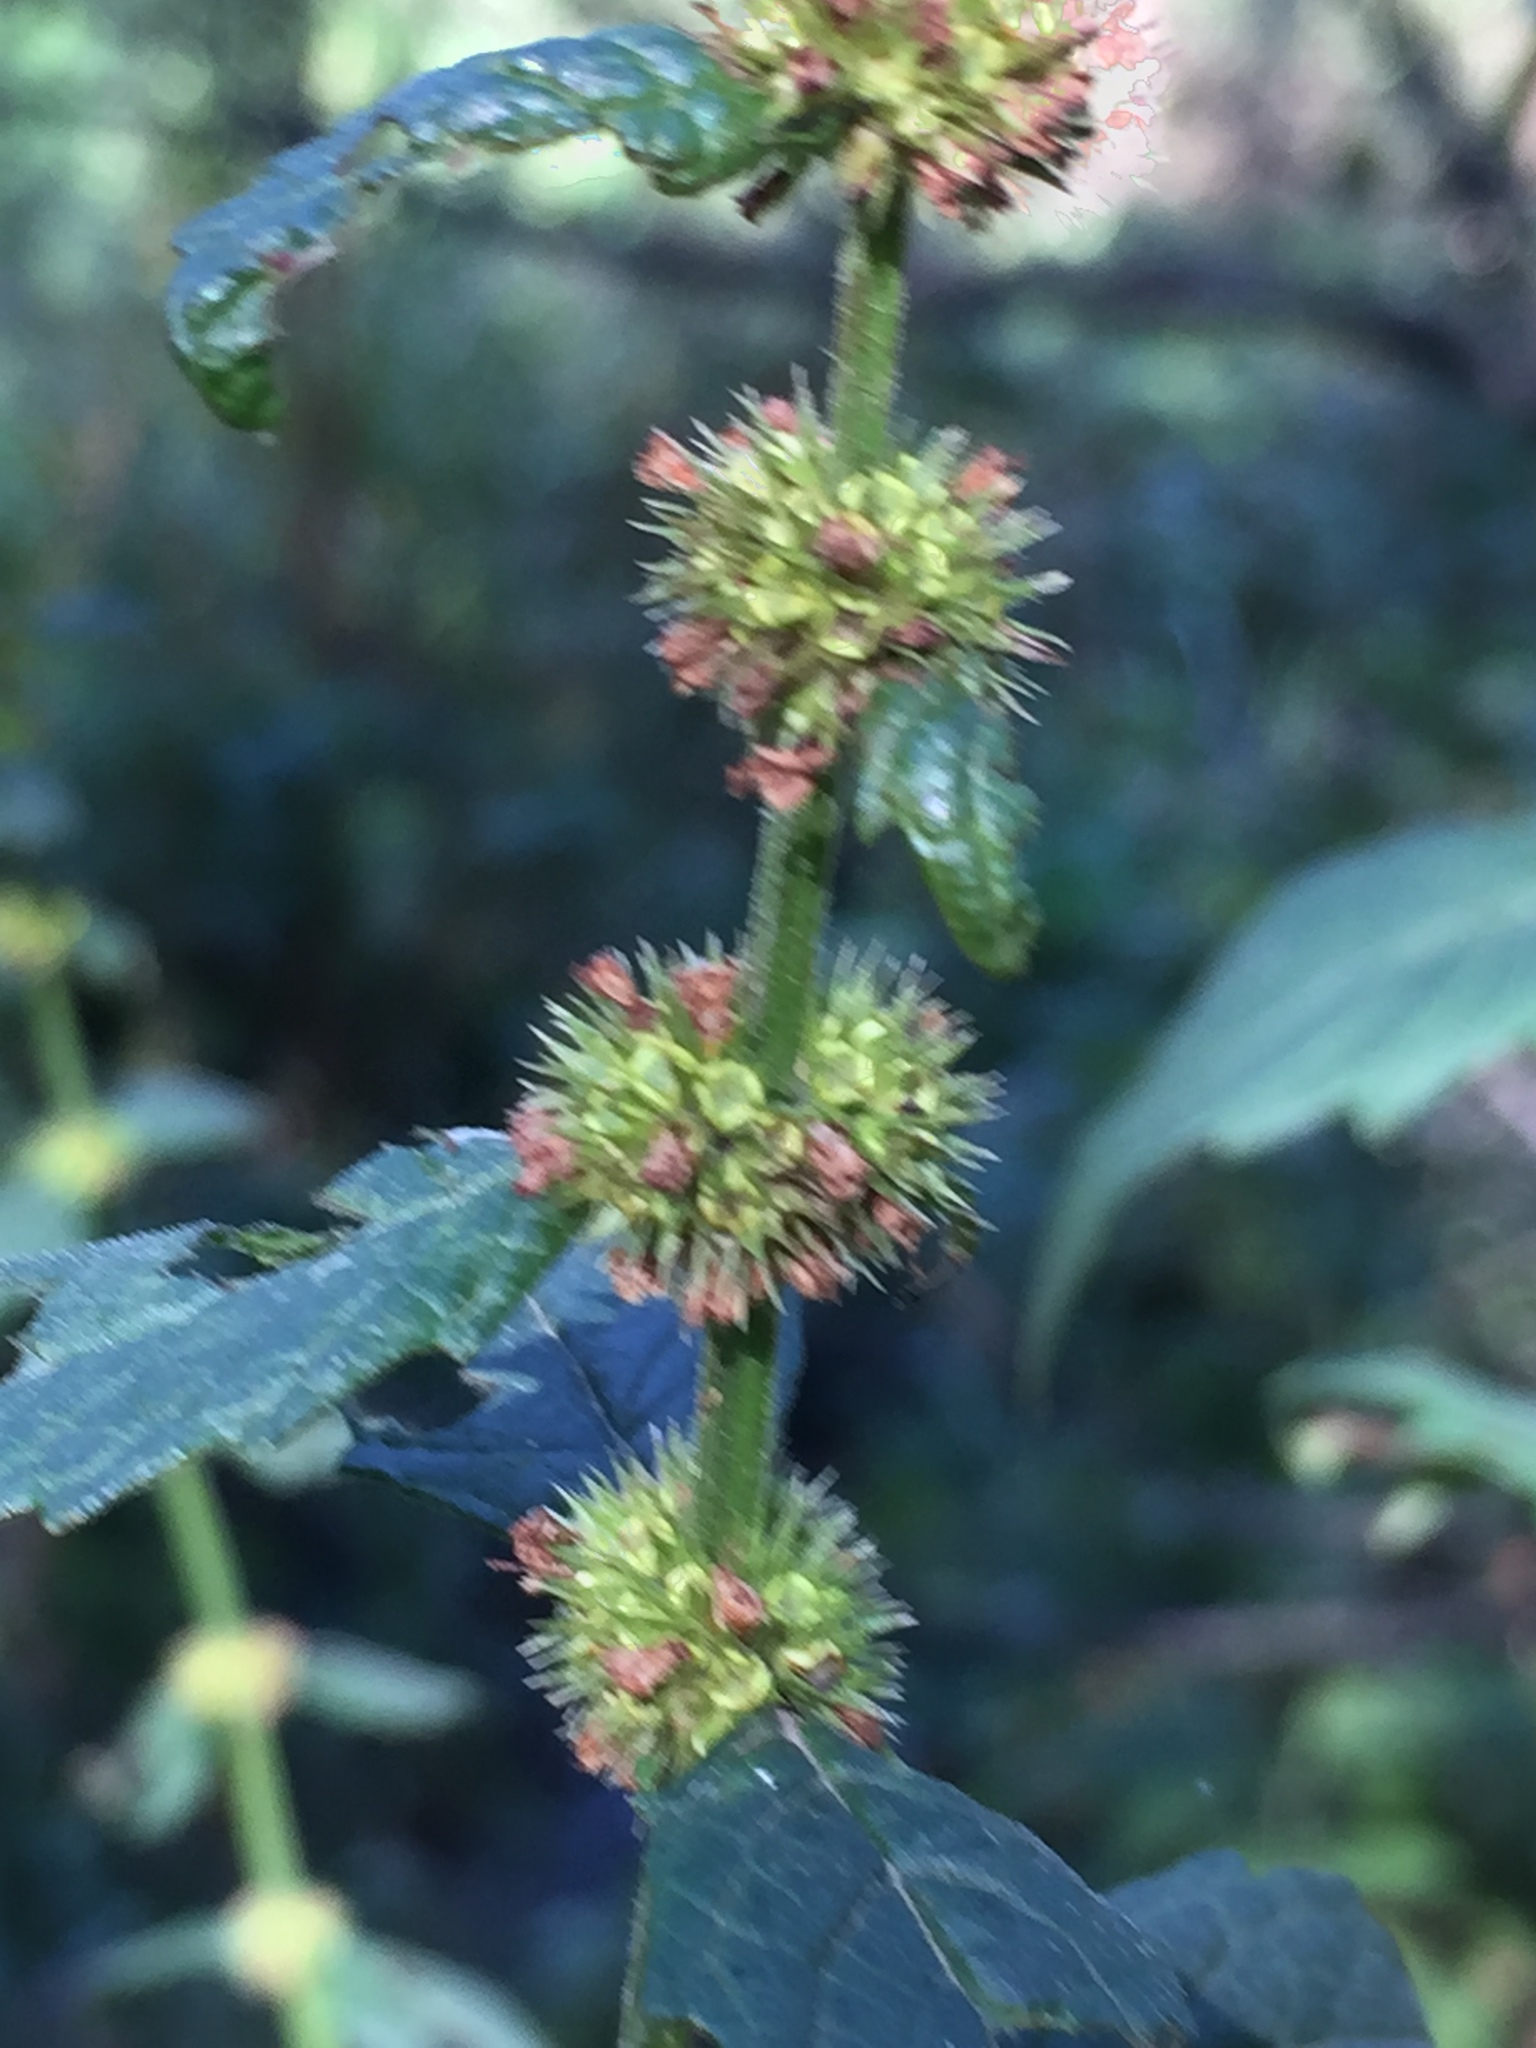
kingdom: Plantae
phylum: Tracheophyta
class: Magnoliopsida
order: Lamiales
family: Lamiaceae
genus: Lycopus
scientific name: Lycopus europaeus
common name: European bugleweed
